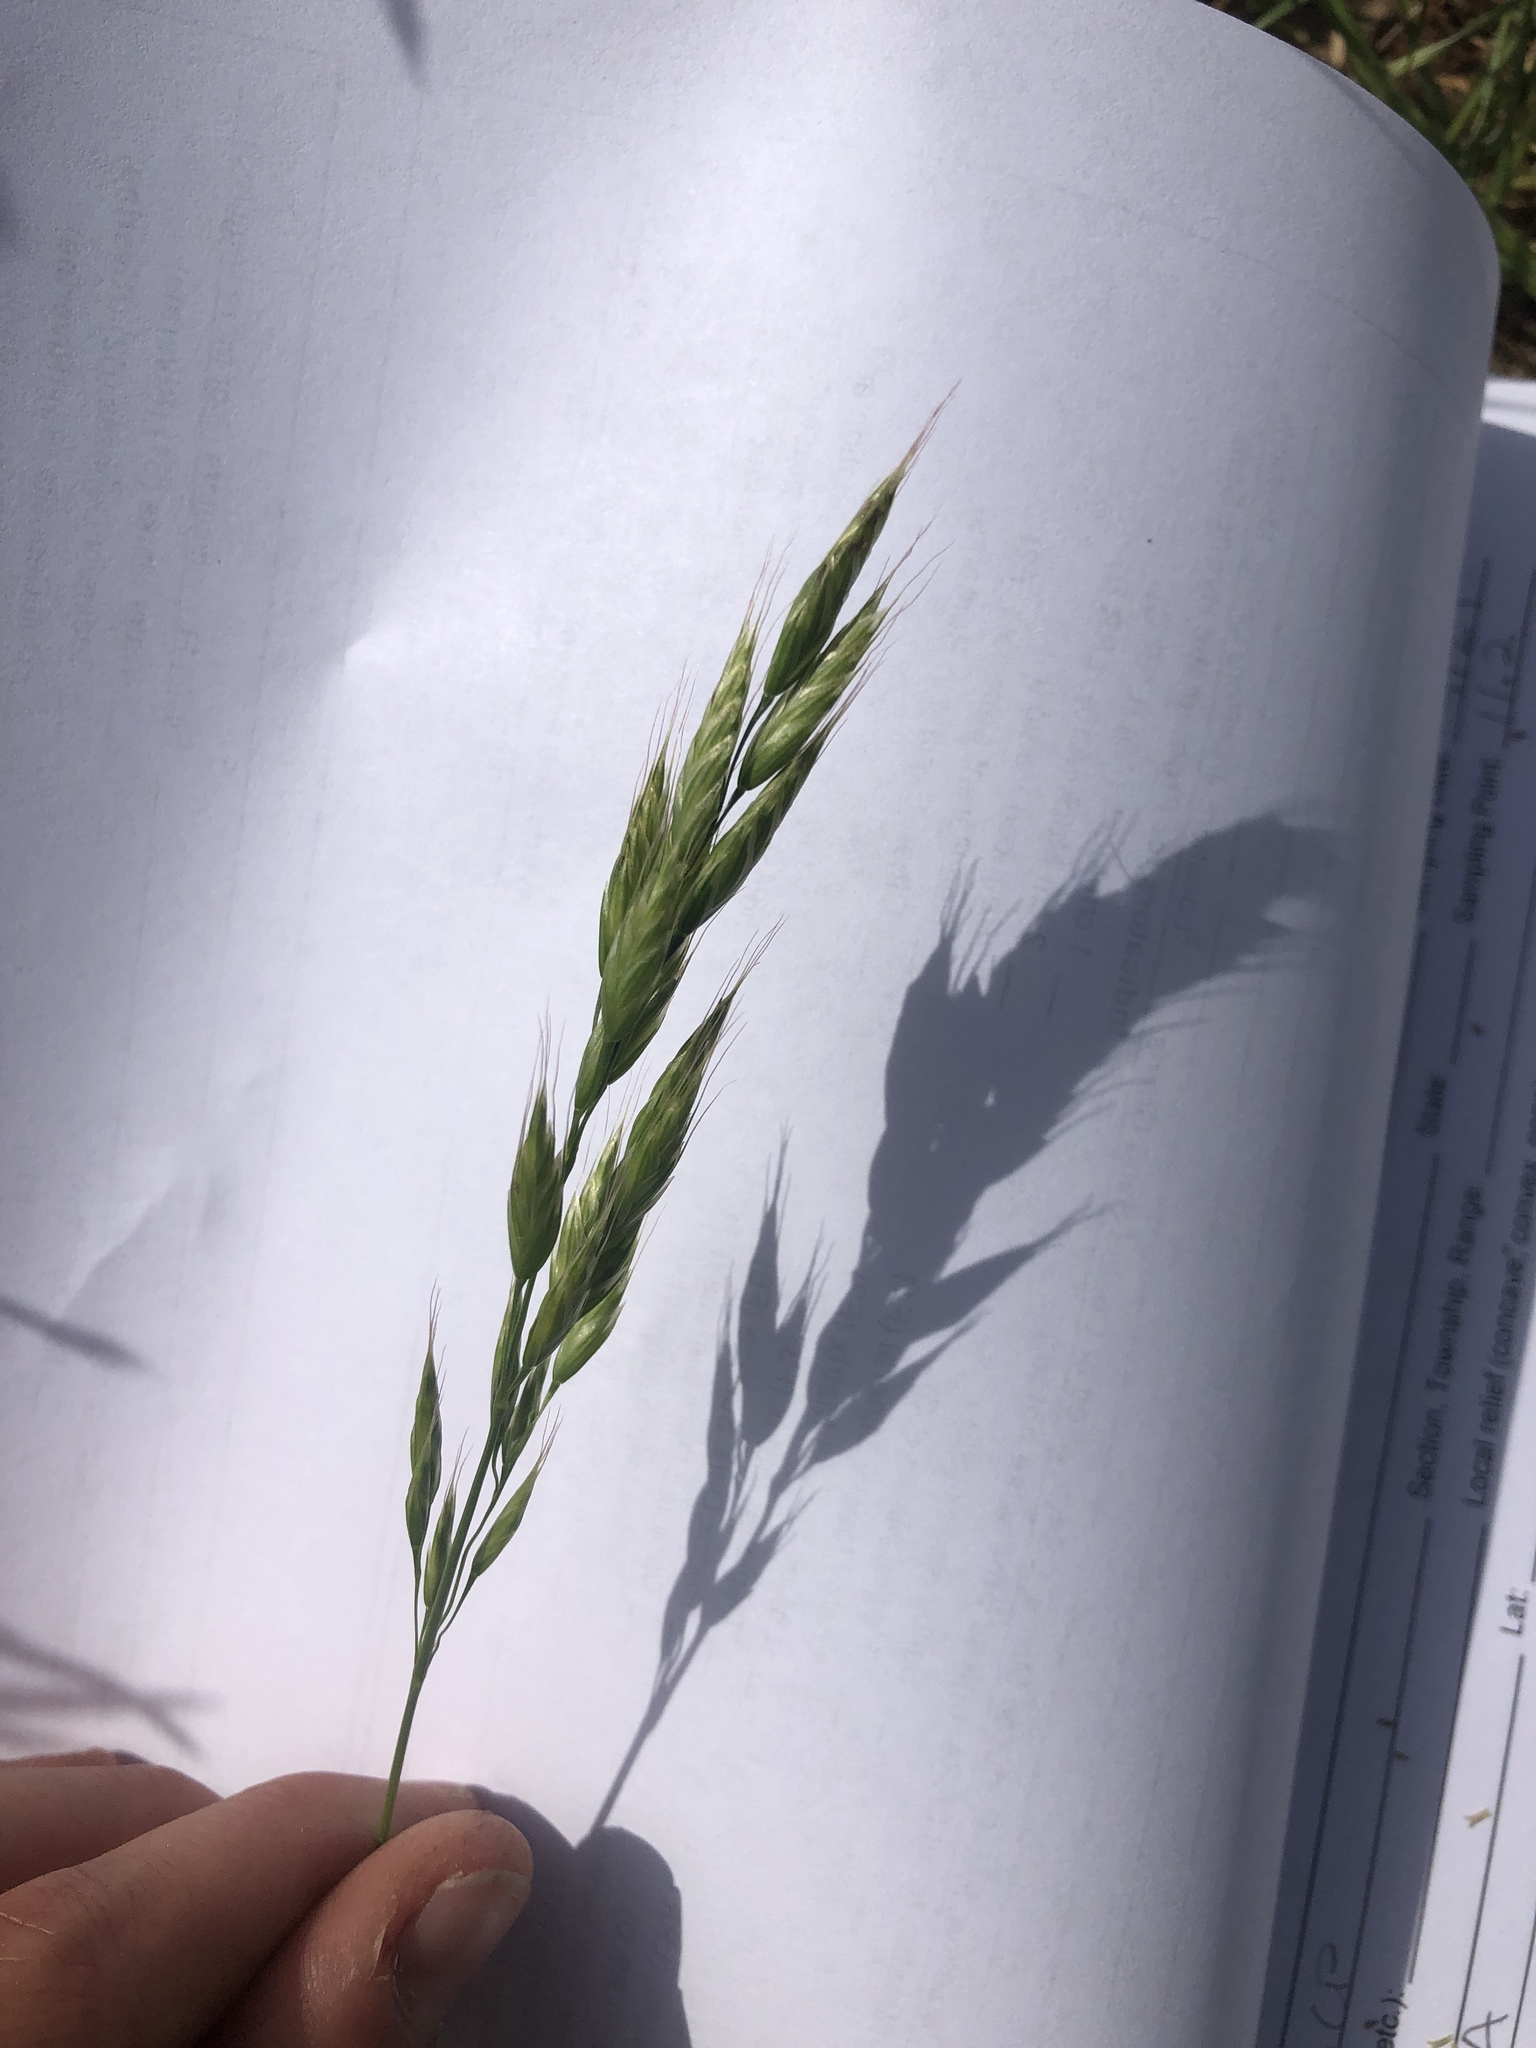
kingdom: Plantae
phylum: Tracheophyta
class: Liliopsida
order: Poales
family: Poaceae
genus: Bromus
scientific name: Bromus hordeaceus
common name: Soft brome
